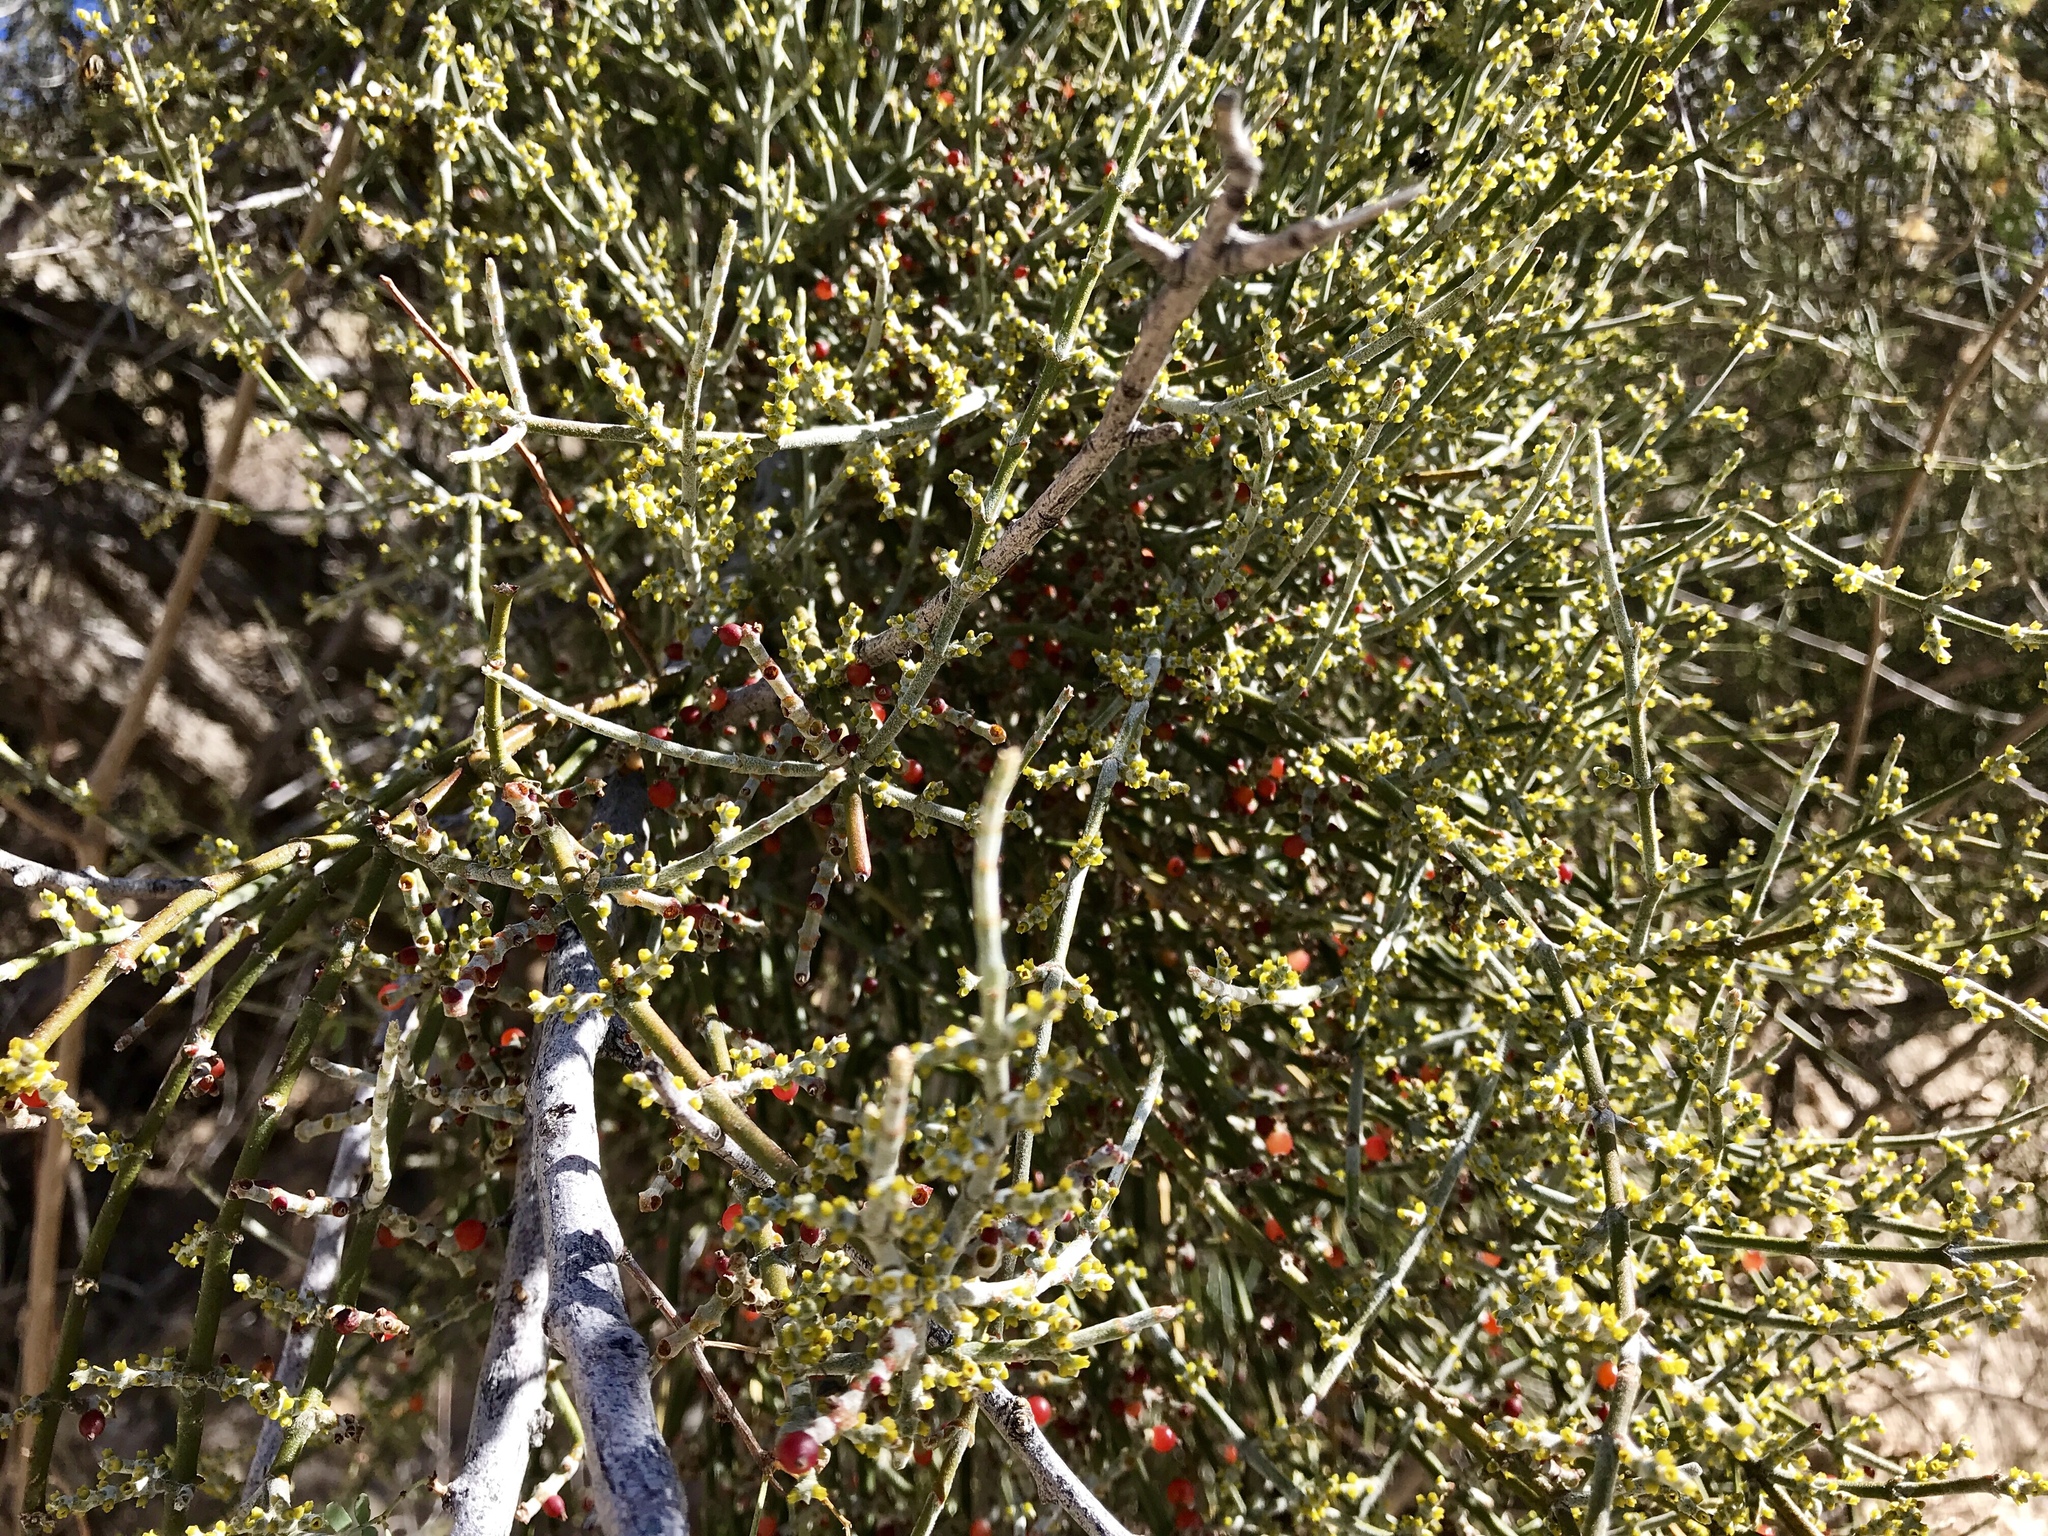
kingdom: Plantae
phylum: Tracheophyta
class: Magnoliopsida
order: Santalales
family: Viscaceae
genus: Phoradendron
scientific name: Phoradendron californicum
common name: Acacia mistletoe
